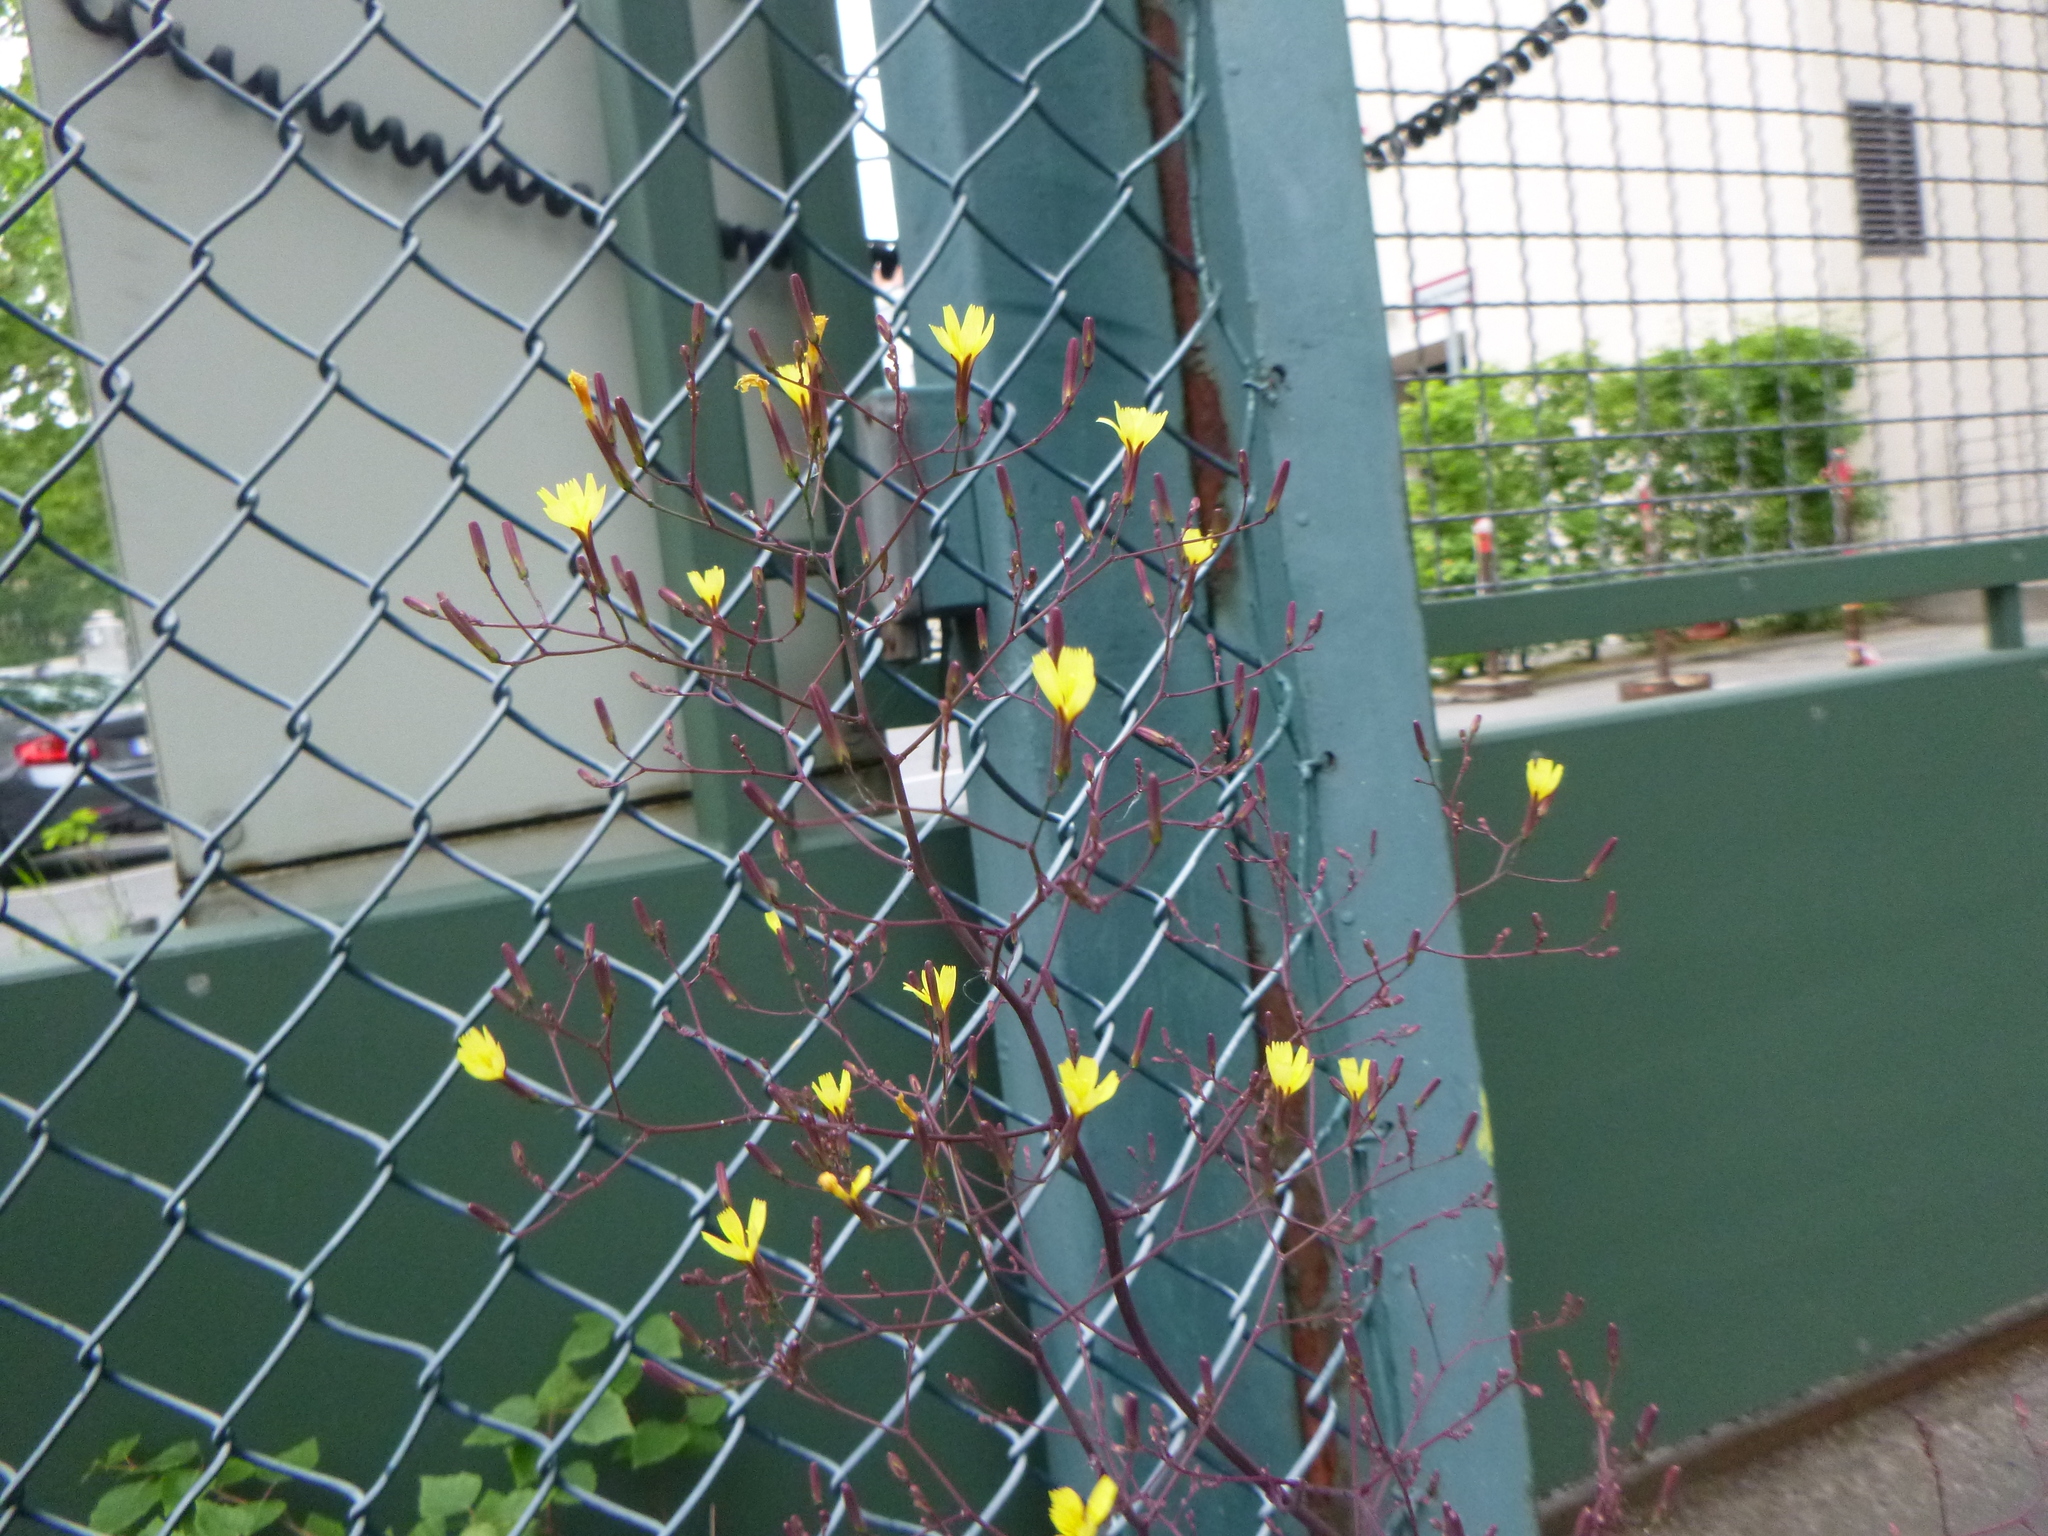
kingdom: Plantae
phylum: Tracheophyta
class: Magnoliopsida
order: Asterales
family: Asteraceae
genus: Mycelis
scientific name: Mycelis muralis
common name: Wall lettuce
